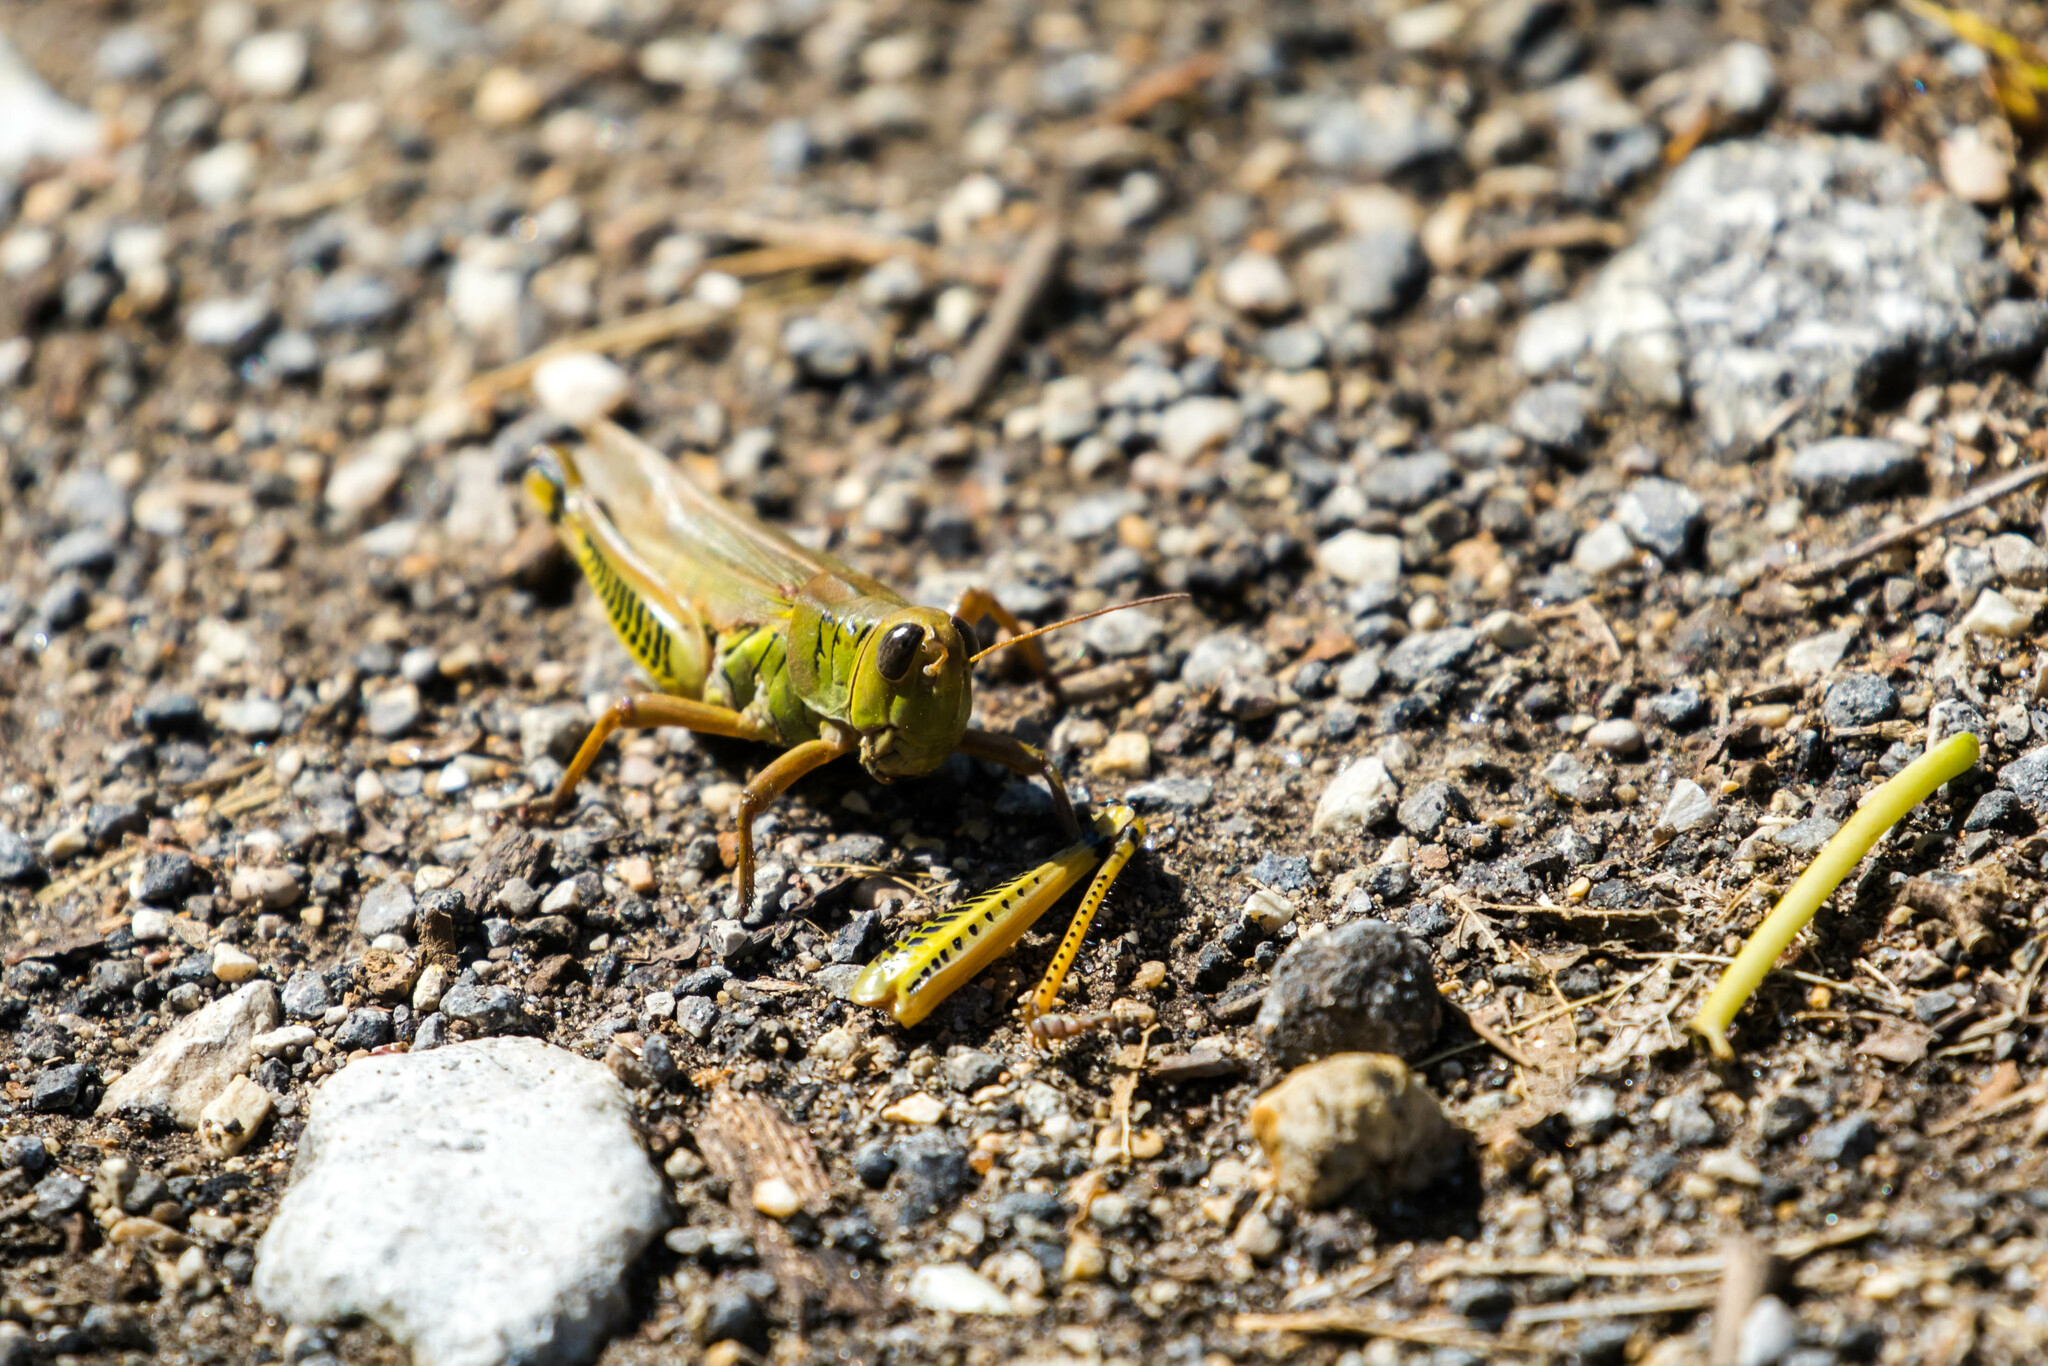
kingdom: Animalia
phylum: Arthropoda
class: Insecta
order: Orthoptera
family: Acrididae
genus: Melanoplus
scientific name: Melanoplus differentialis
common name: Differential grasshopper
